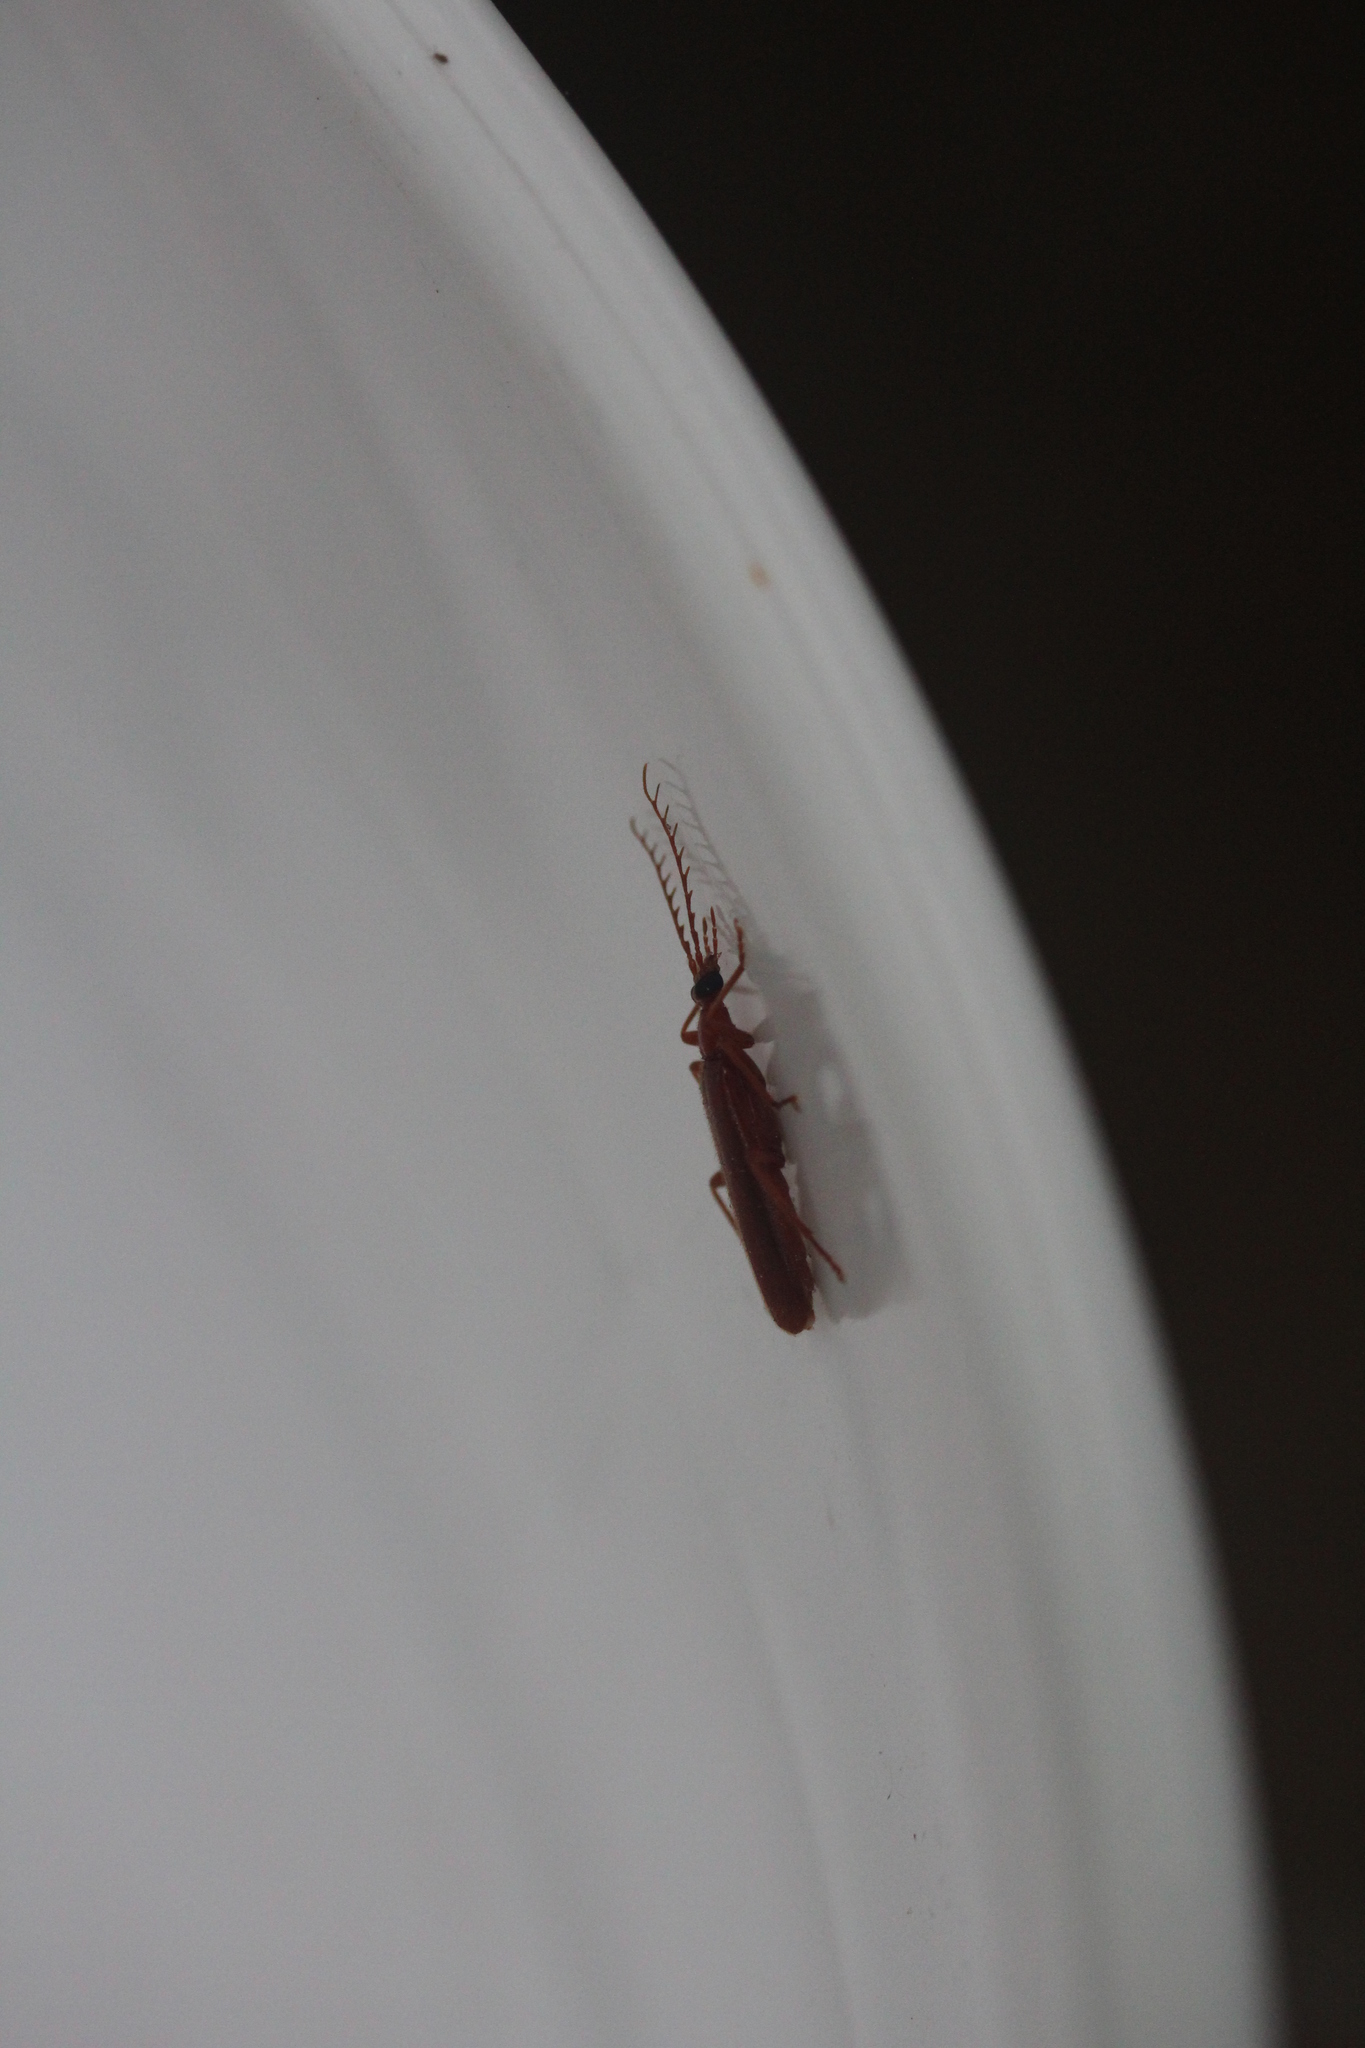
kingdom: Animalia
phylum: Arthropoda
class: Insecta
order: Coleoptera
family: Pyrochroidae
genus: Dendroides
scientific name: Dendroides concolor
